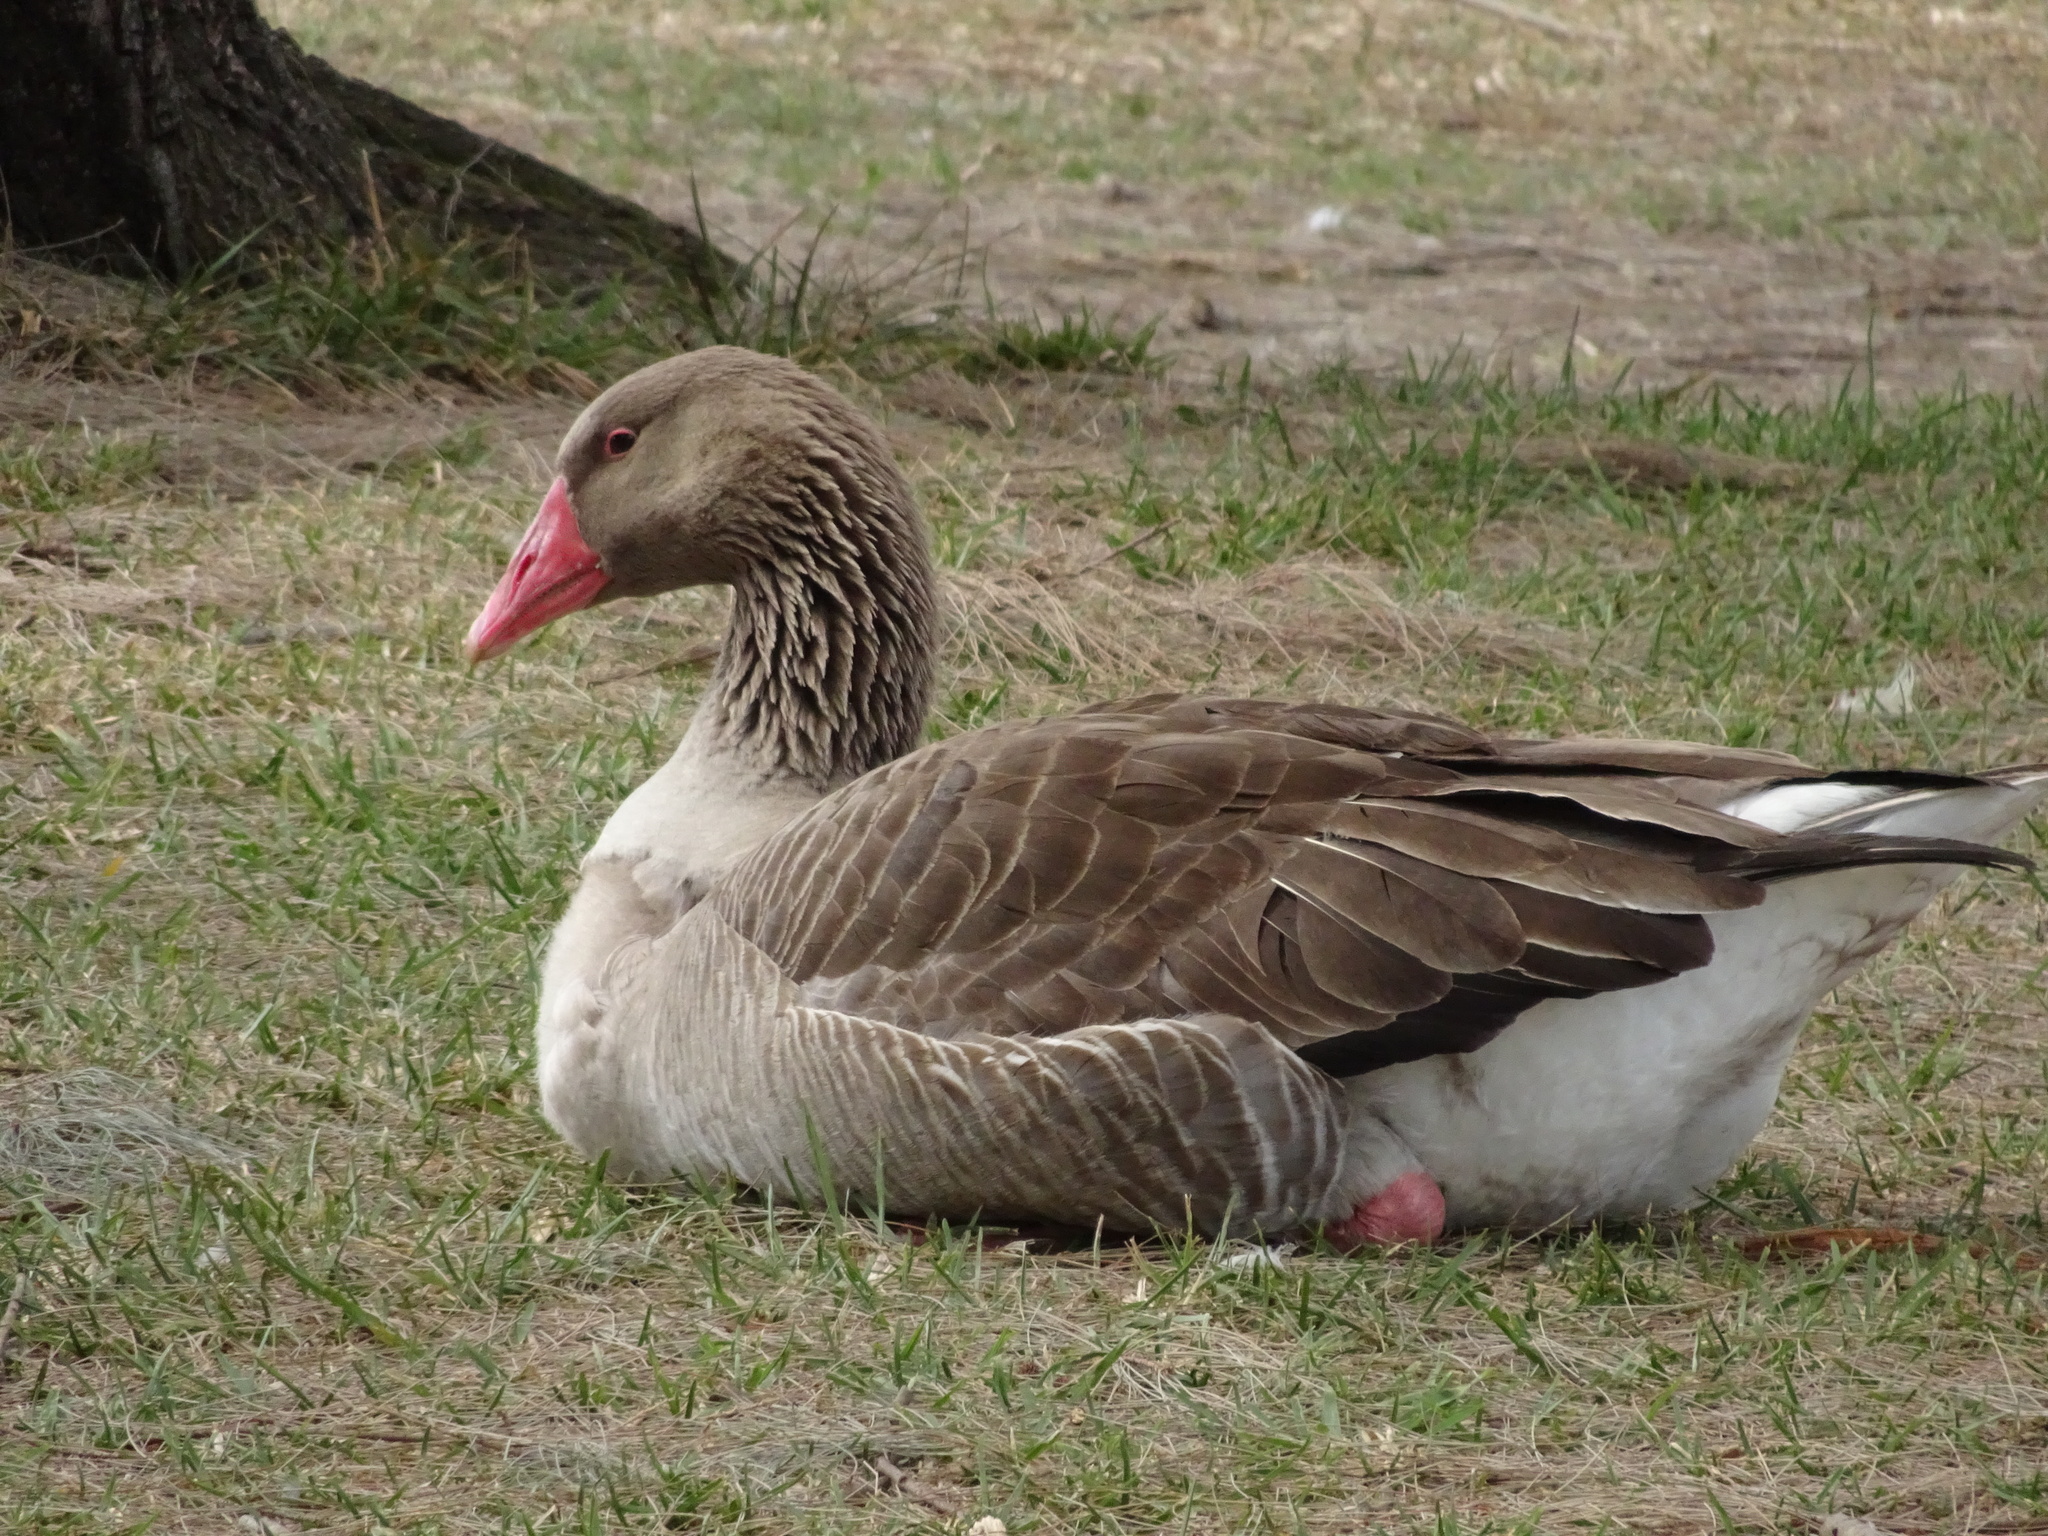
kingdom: Animalia
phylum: Chordata
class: Aves
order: Anseriformes
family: Anatidae
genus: Anser
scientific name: Anser anser
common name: Greylag goose
